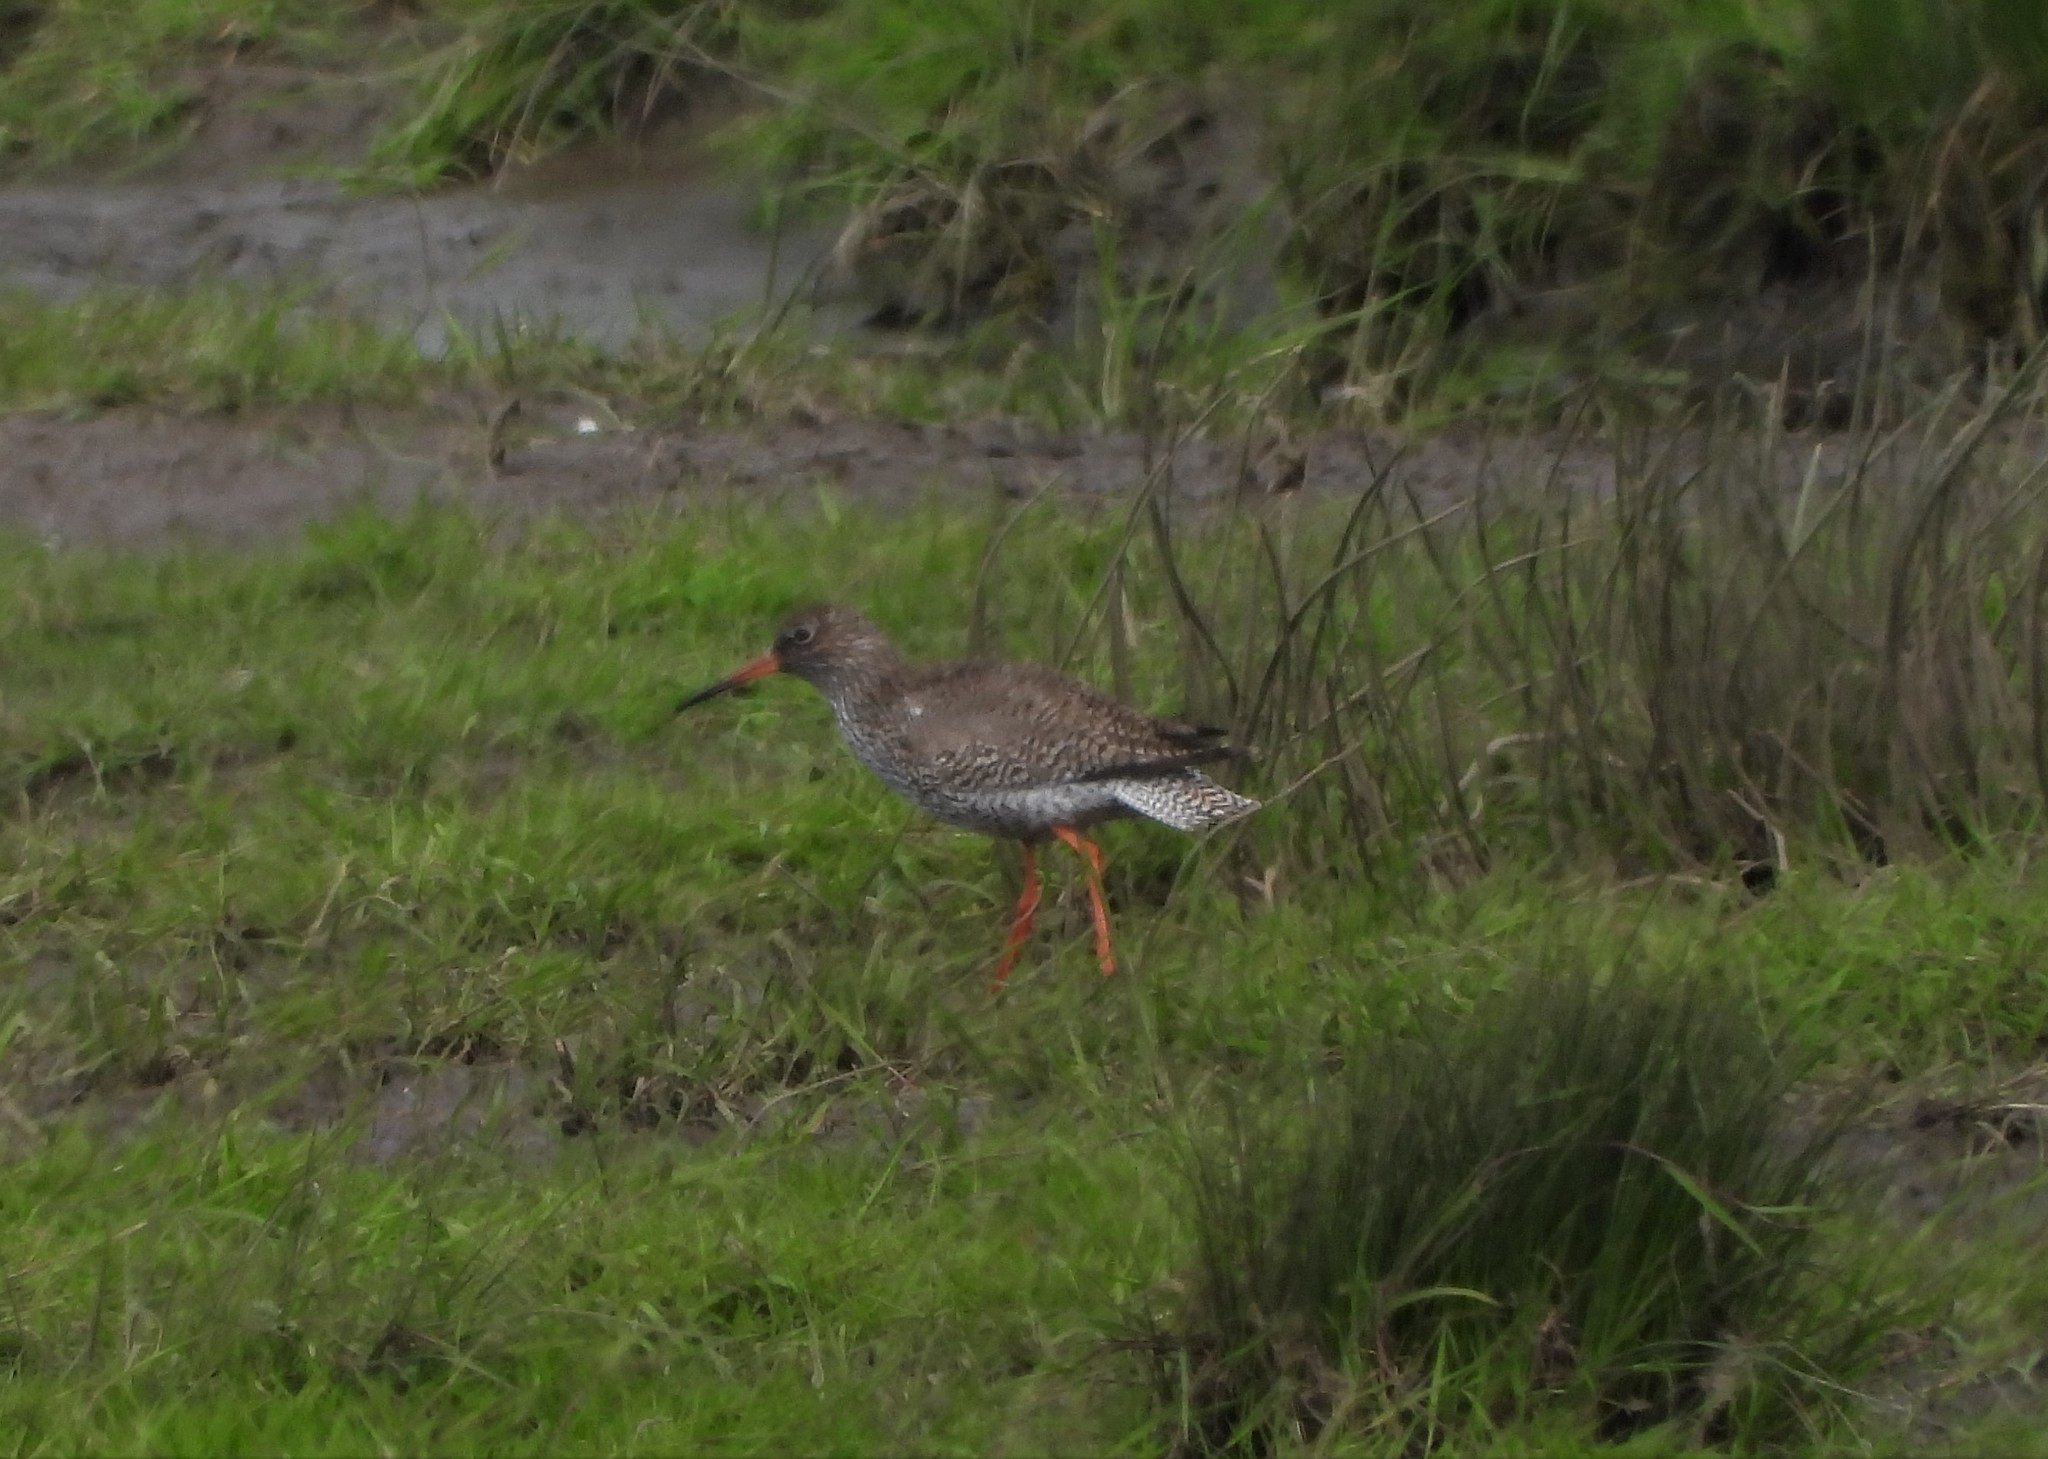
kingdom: Animalia
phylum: Chordata
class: Aves
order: Charadriiformes
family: Scolopacidae
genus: Tringa
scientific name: Tringa totanus
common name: Common redshank
